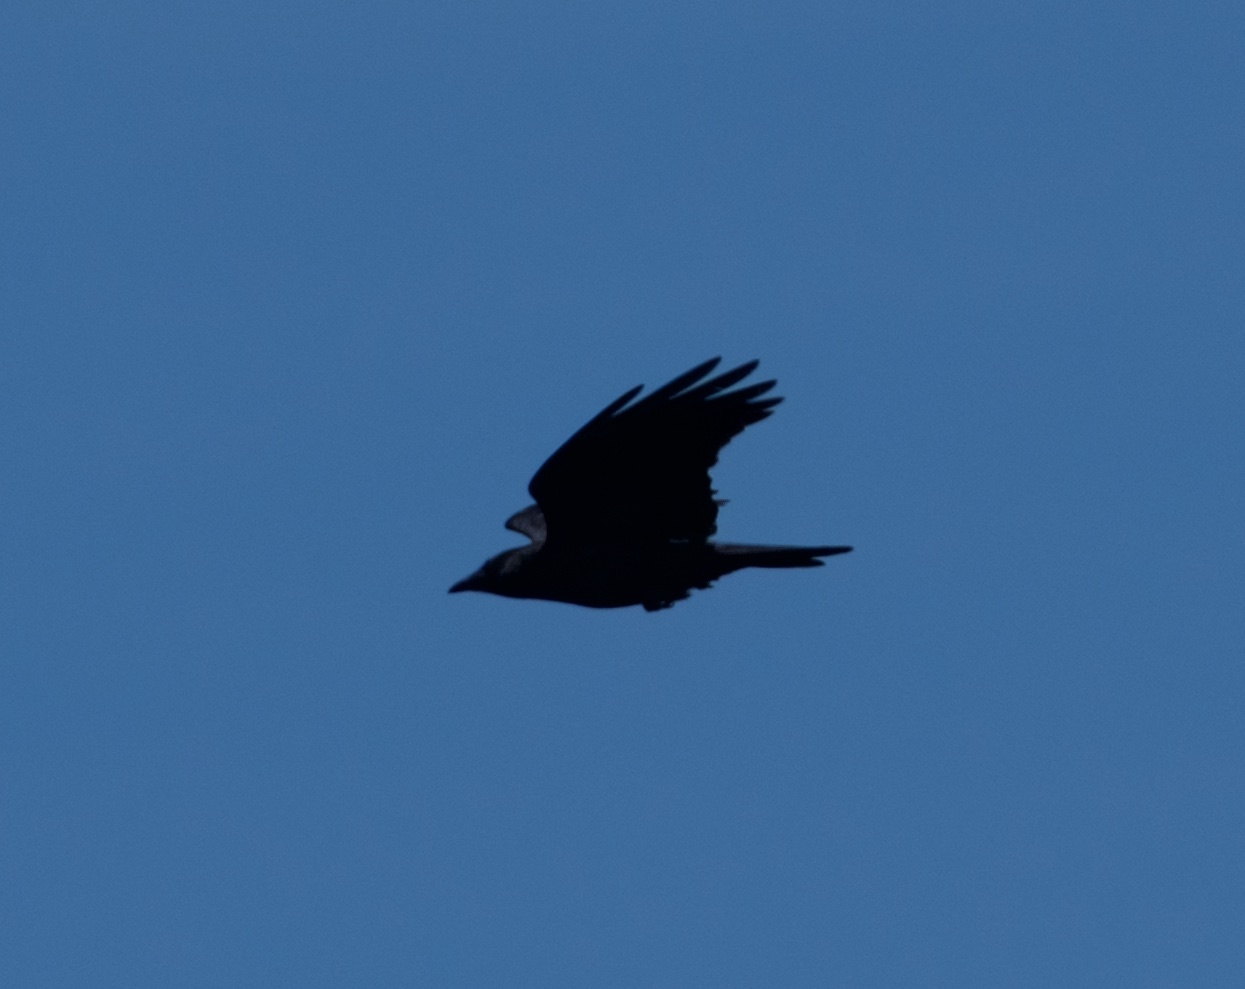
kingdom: Animalia
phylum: Chordata
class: Aves
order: Passeriformes
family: Corvidae
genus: Corvus
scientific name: Corvus brachyrhynchos
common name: American crow
